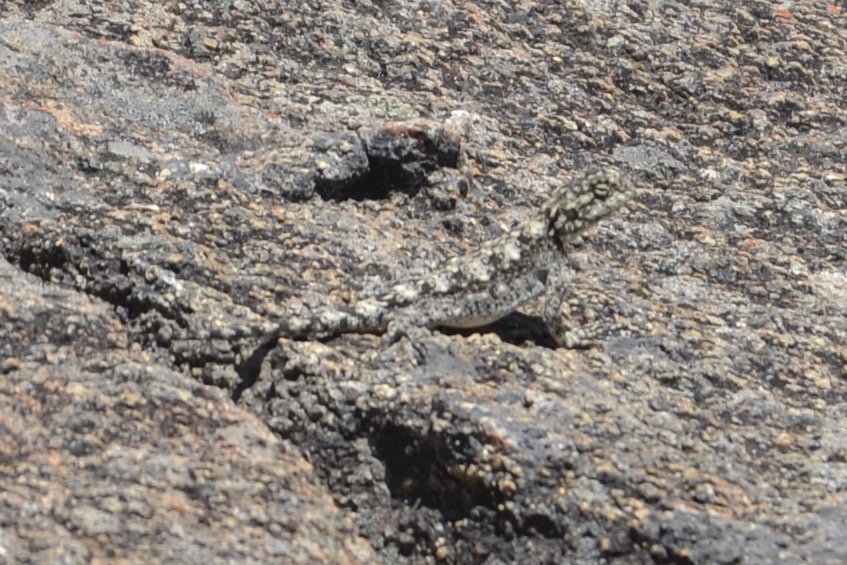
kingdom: Animalia
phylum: Chordata
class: Squamata
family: Agamidae
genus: Agama
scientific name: Agama atra
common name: Southern african rock agama
